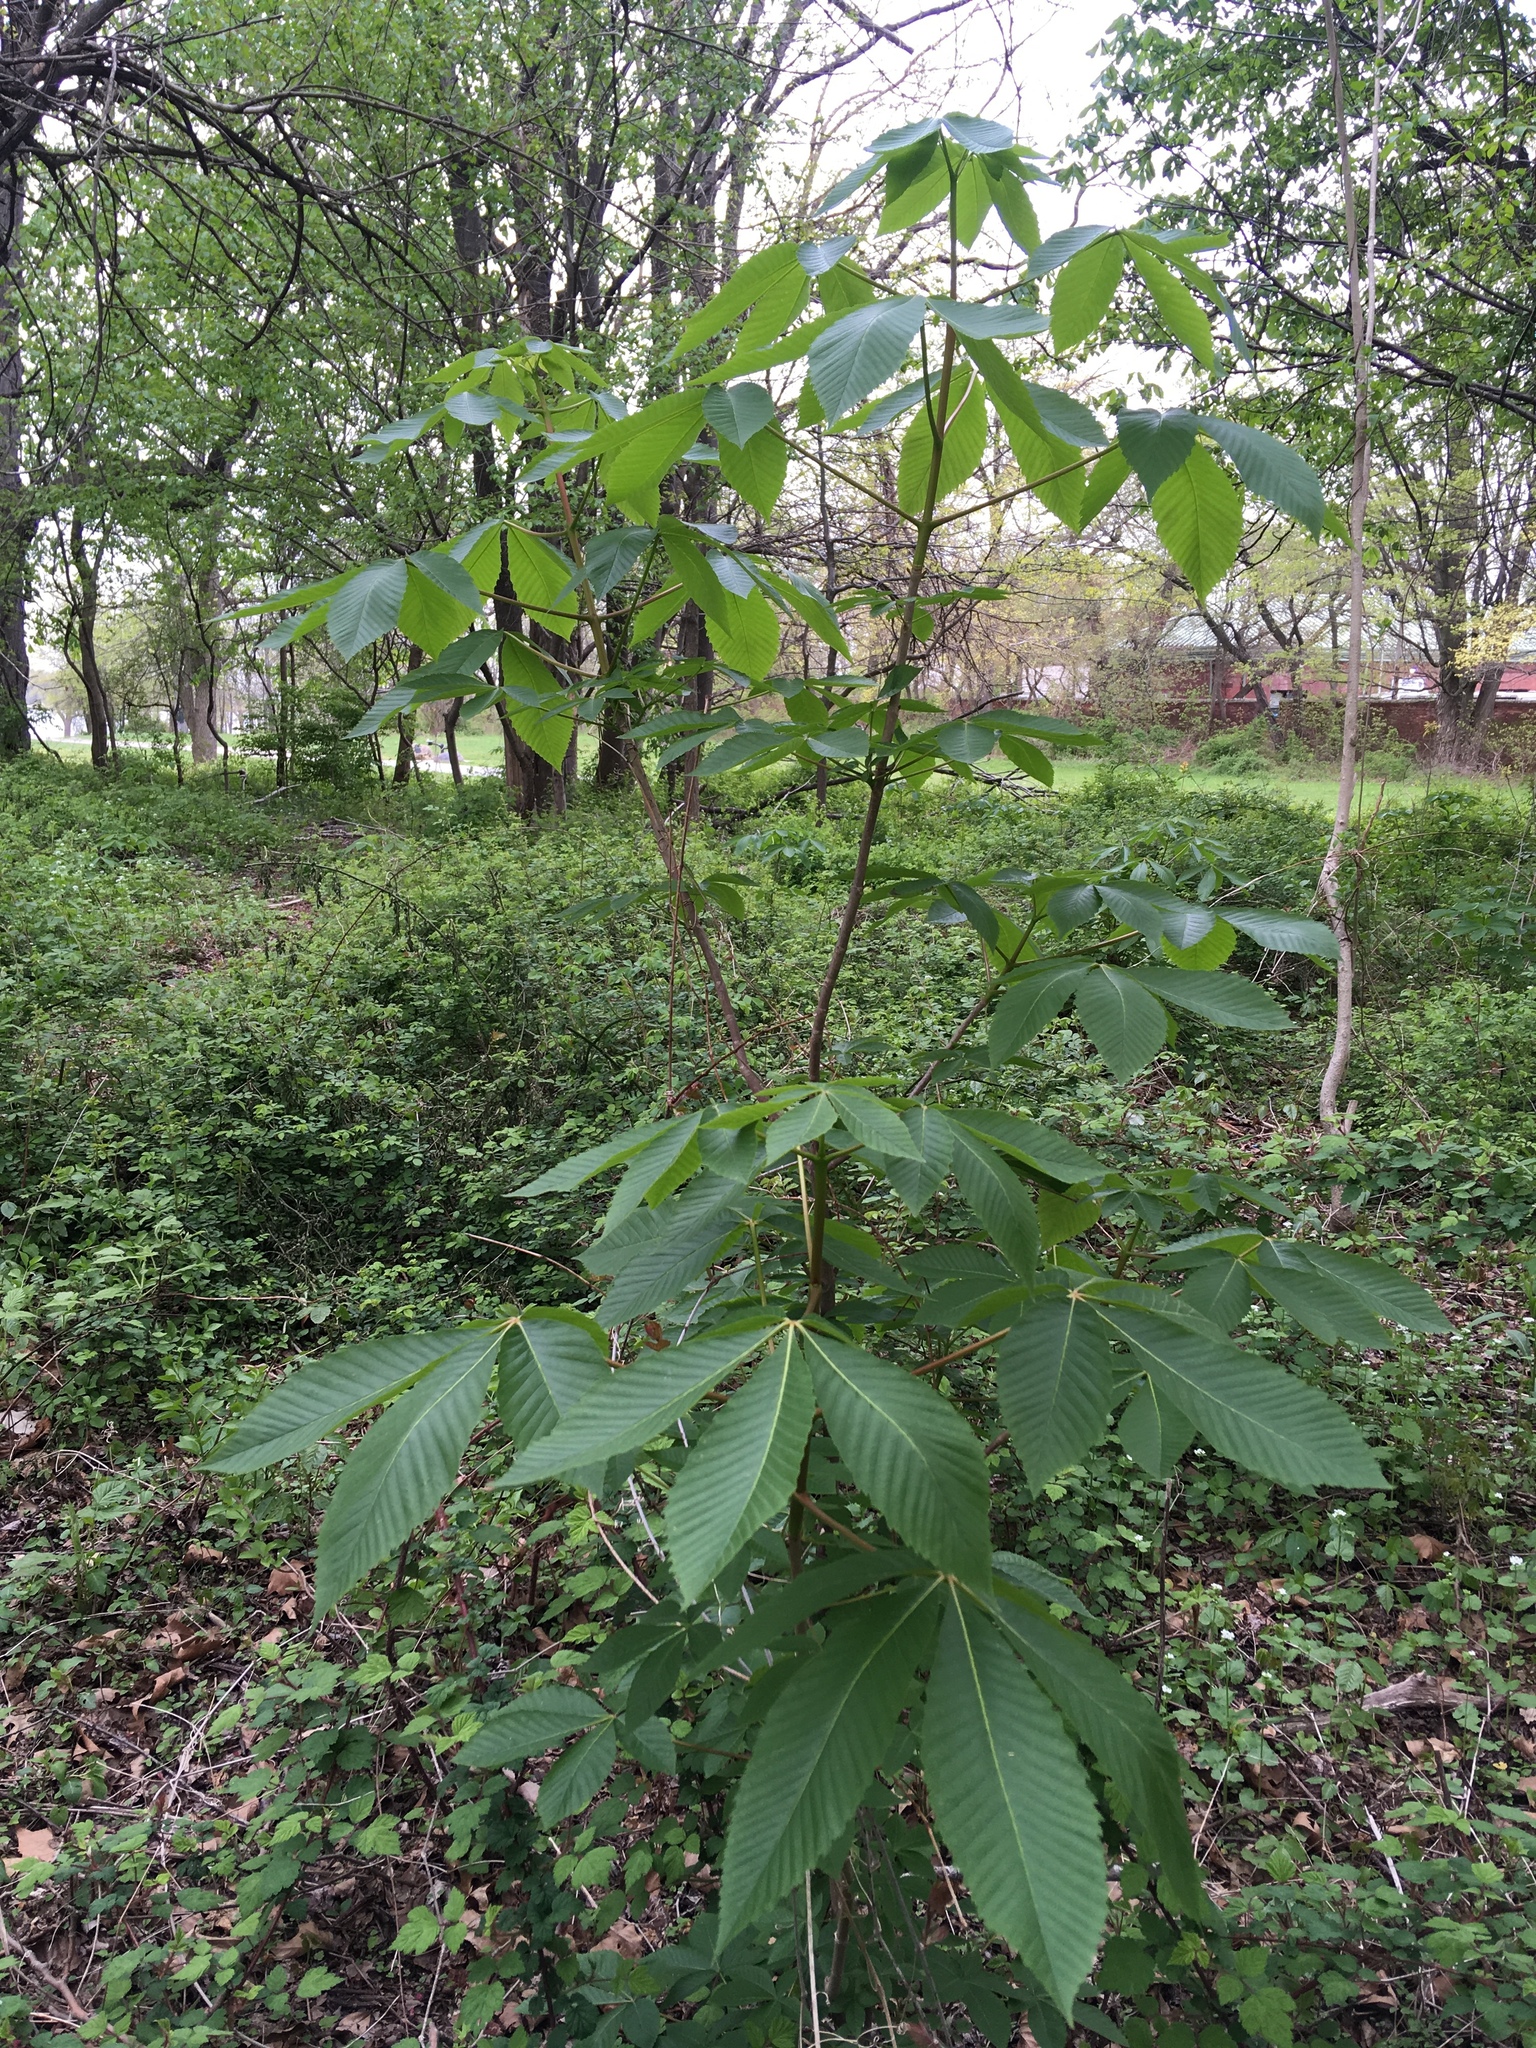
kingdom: Plantae
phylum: Tracheophyta
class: Magnoliopsida
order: Sapindales
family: Sapindaceae
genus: Aesculus
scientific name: Aesculus glabra
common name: Ohio buckeye
